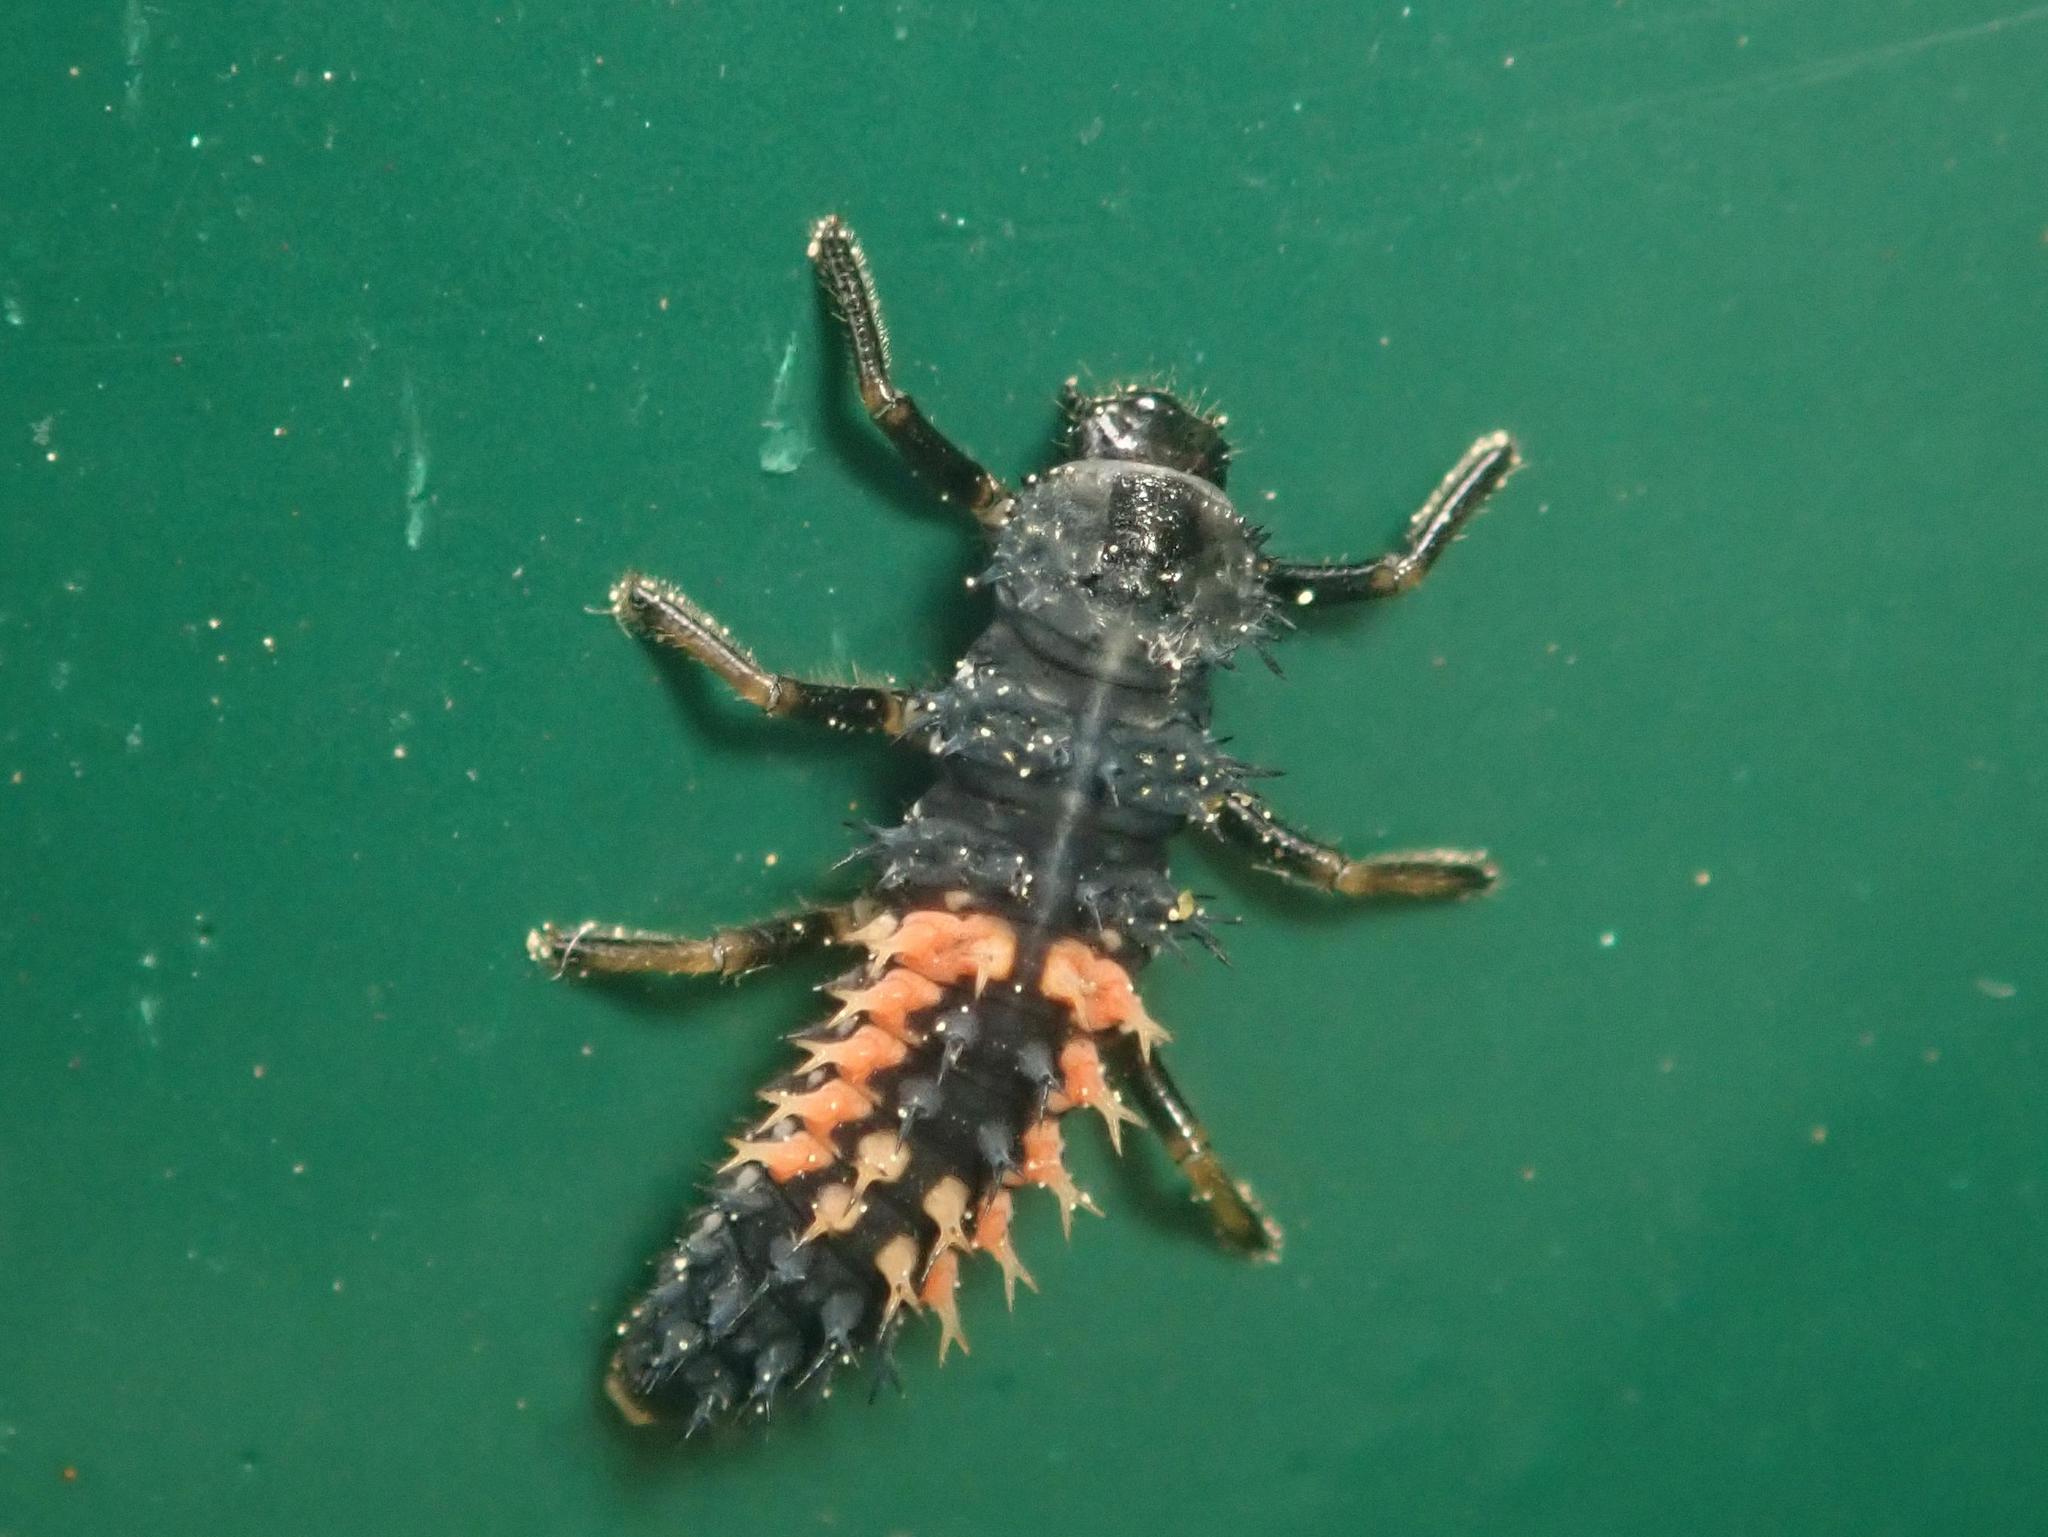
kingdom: Animalia
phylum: Arthropoda
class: Insecta
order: Coleoptera
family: Coccinellidae
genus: Harmonia
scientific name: Harmonia axyridis
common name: Harlequin ladybird
